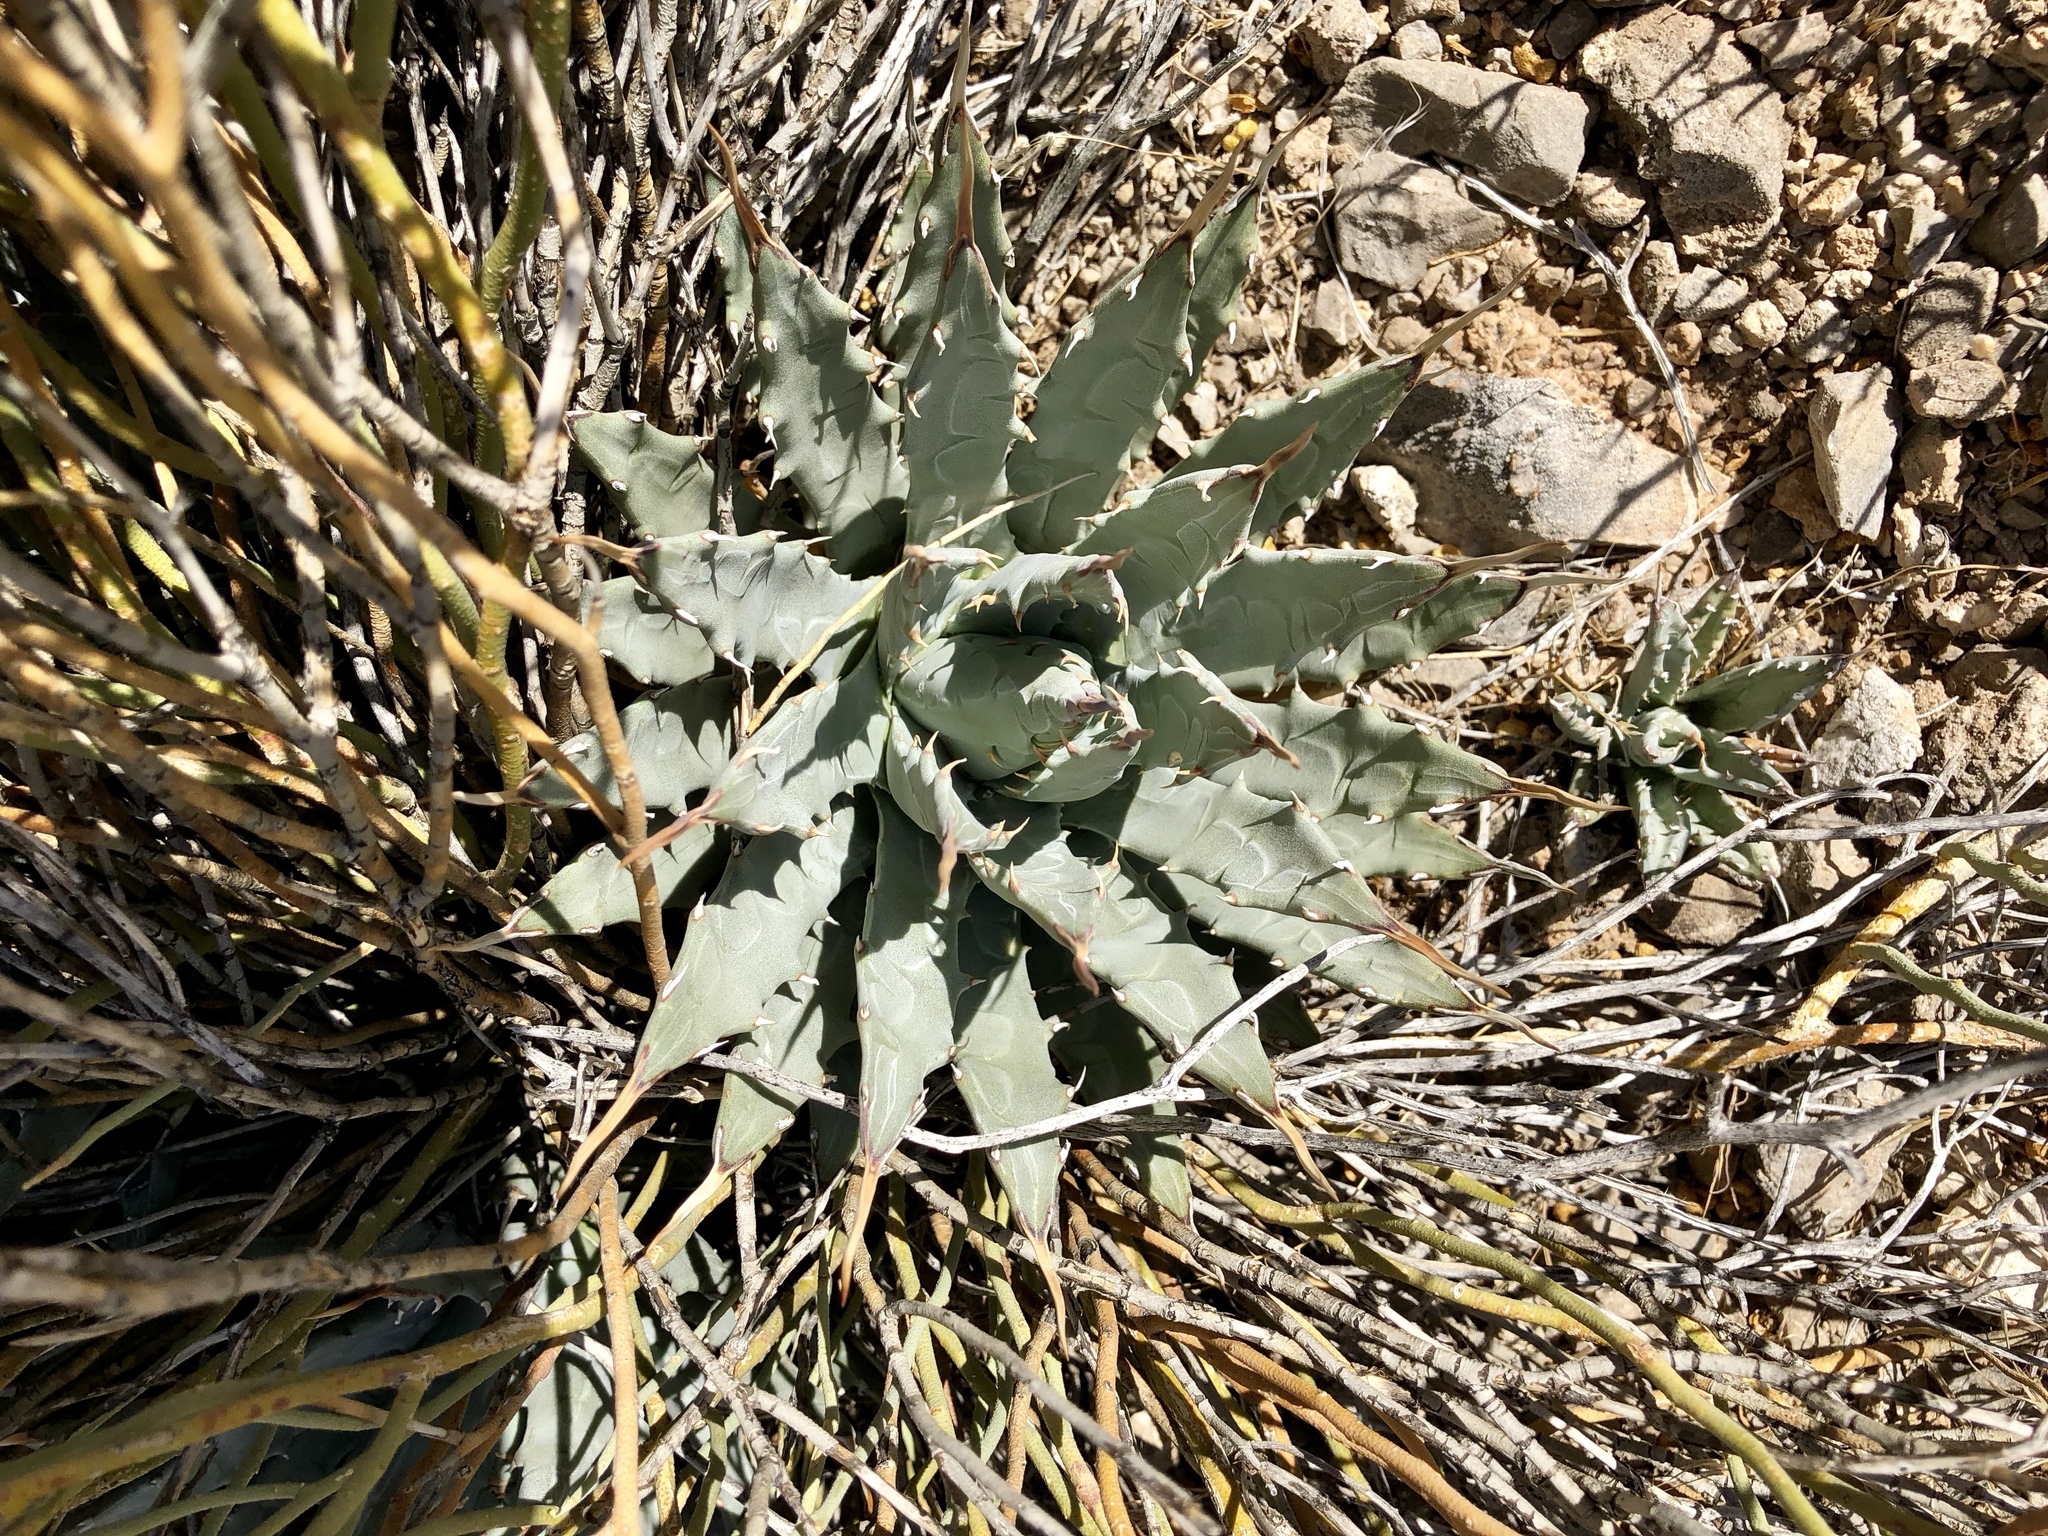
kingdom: Plantae
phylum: Tracheophyta
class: Liliopsida
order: Asparagales
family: Asparagaceae
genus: Agave
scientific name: Agave utahensis
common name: Utah agave
